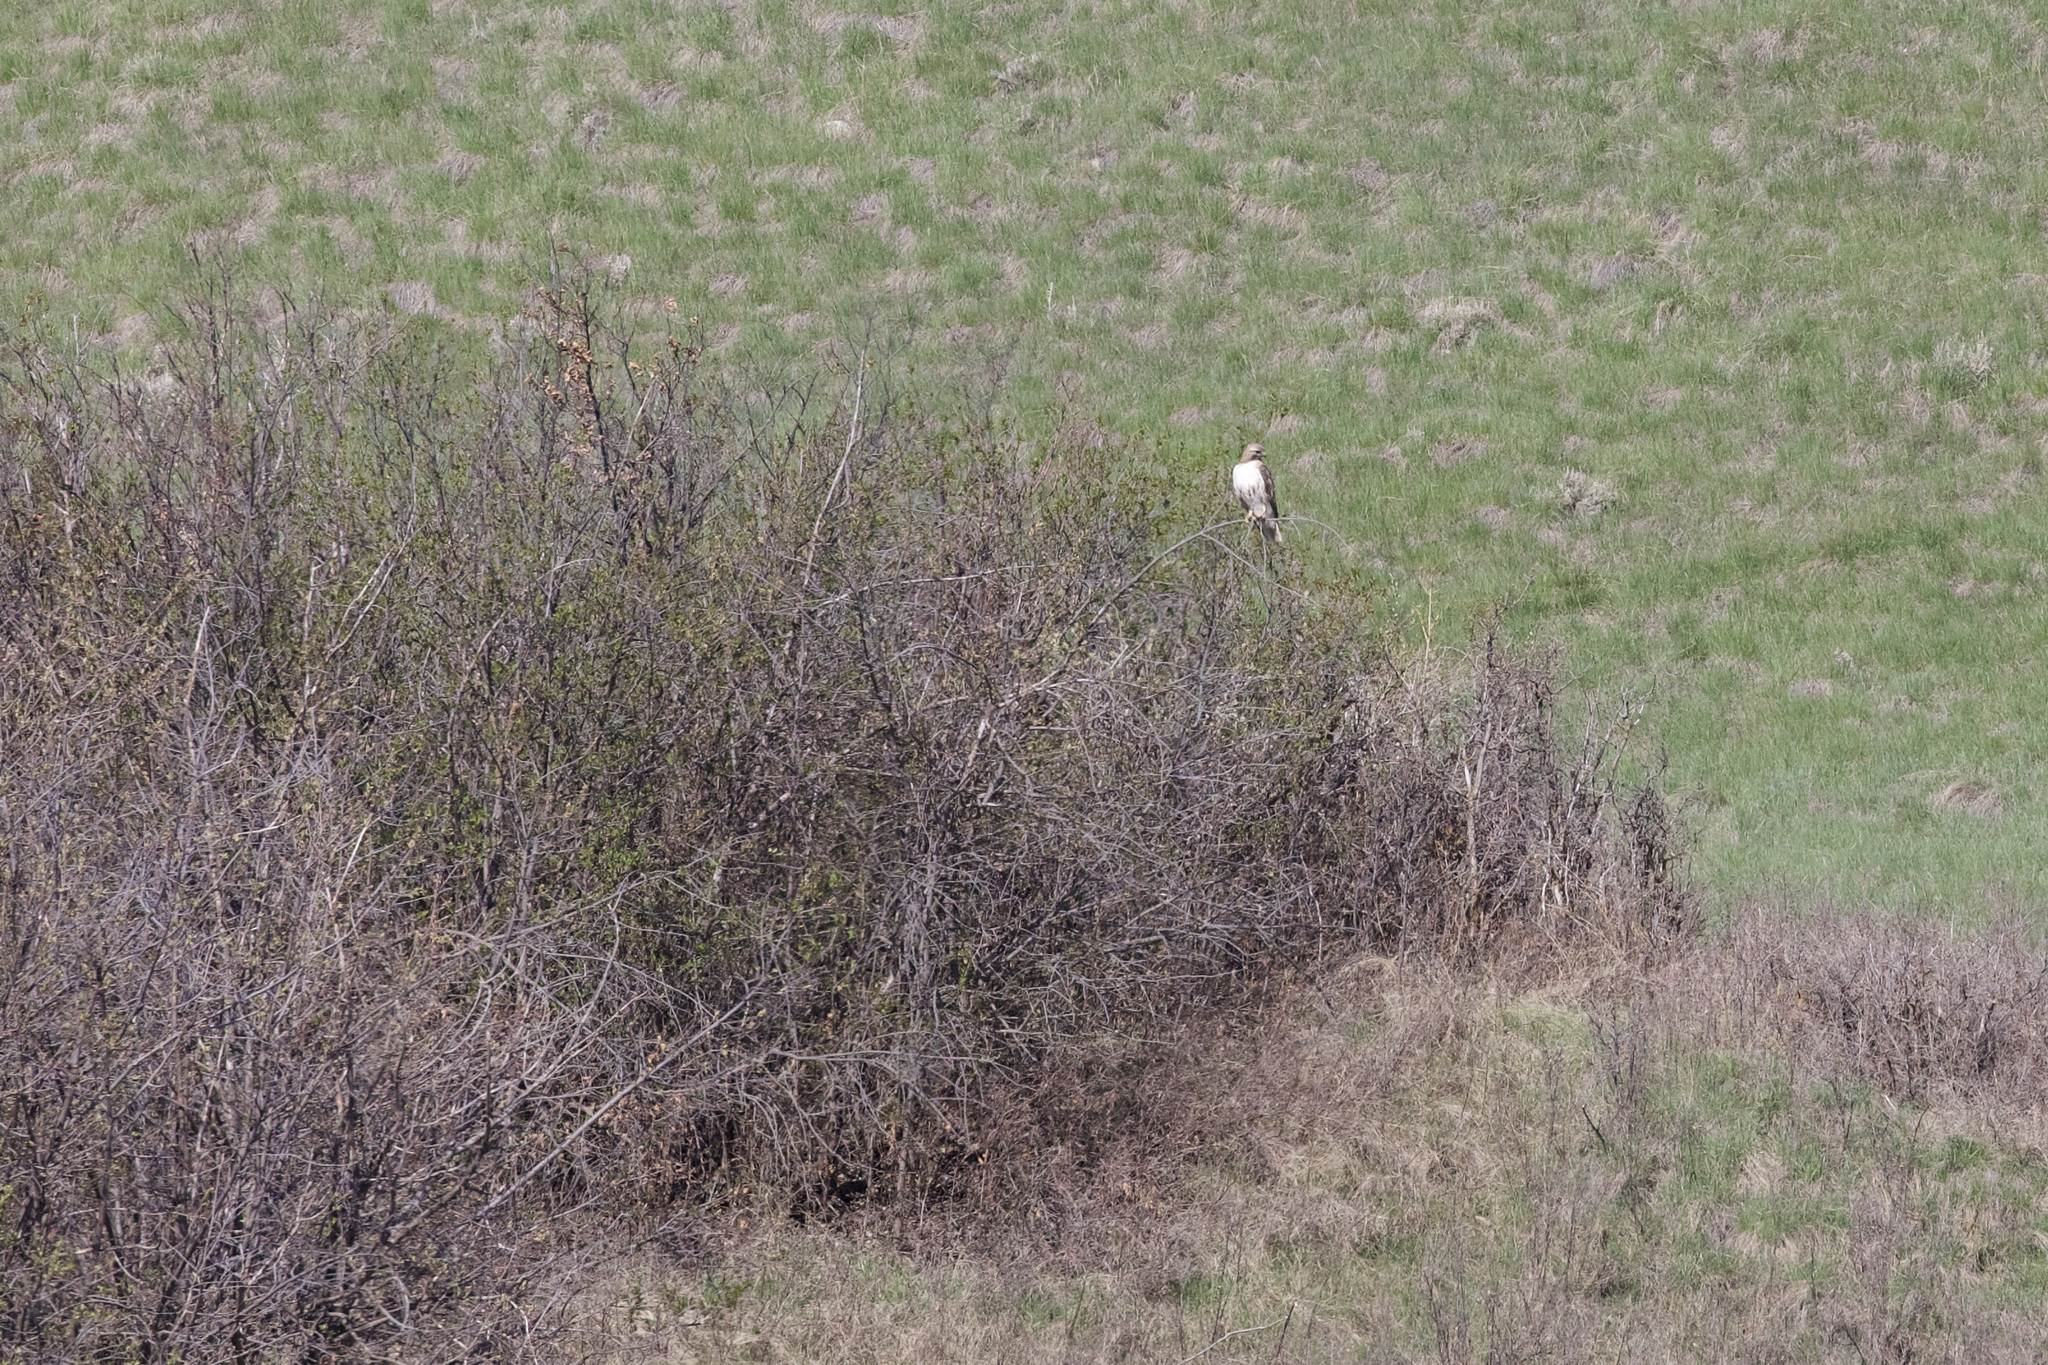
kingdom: Animalia
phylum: Chordata
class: Aves
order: Accipitriformes
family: Accipitridae
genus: Buteo
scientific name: Buteo jamaicensis
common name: Red-tailed hawk
